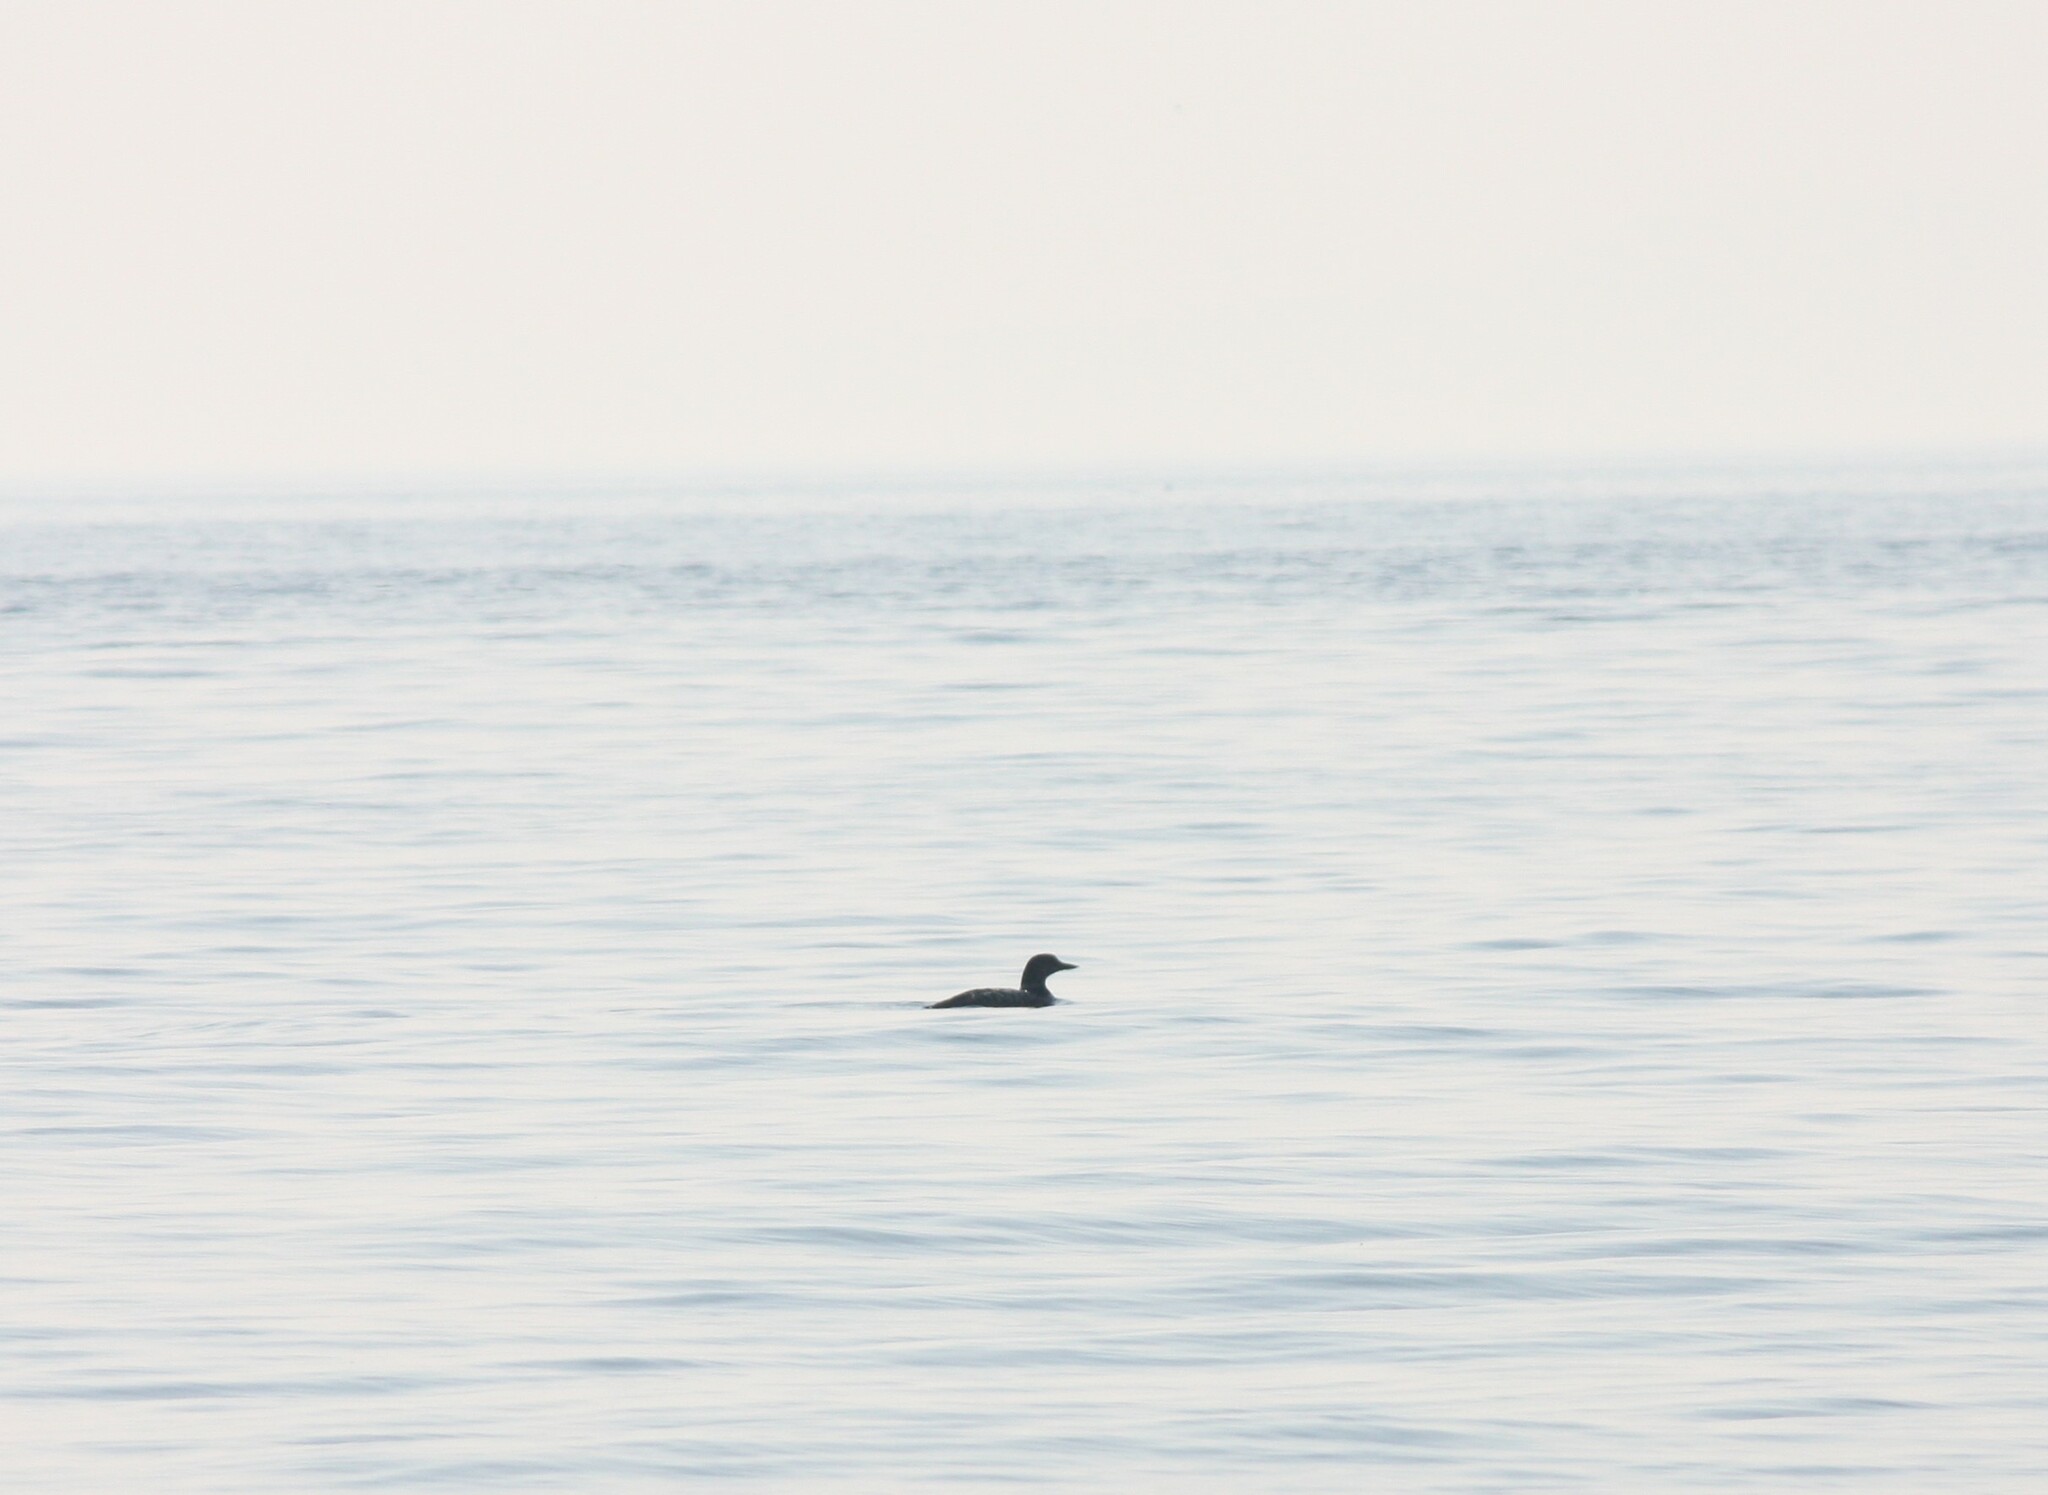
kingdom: Animalia
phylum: Chordata
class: Aves
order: Gaviiformes
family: Gaviidae
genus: Gavia
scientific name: Gavia immer
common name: Common loon
